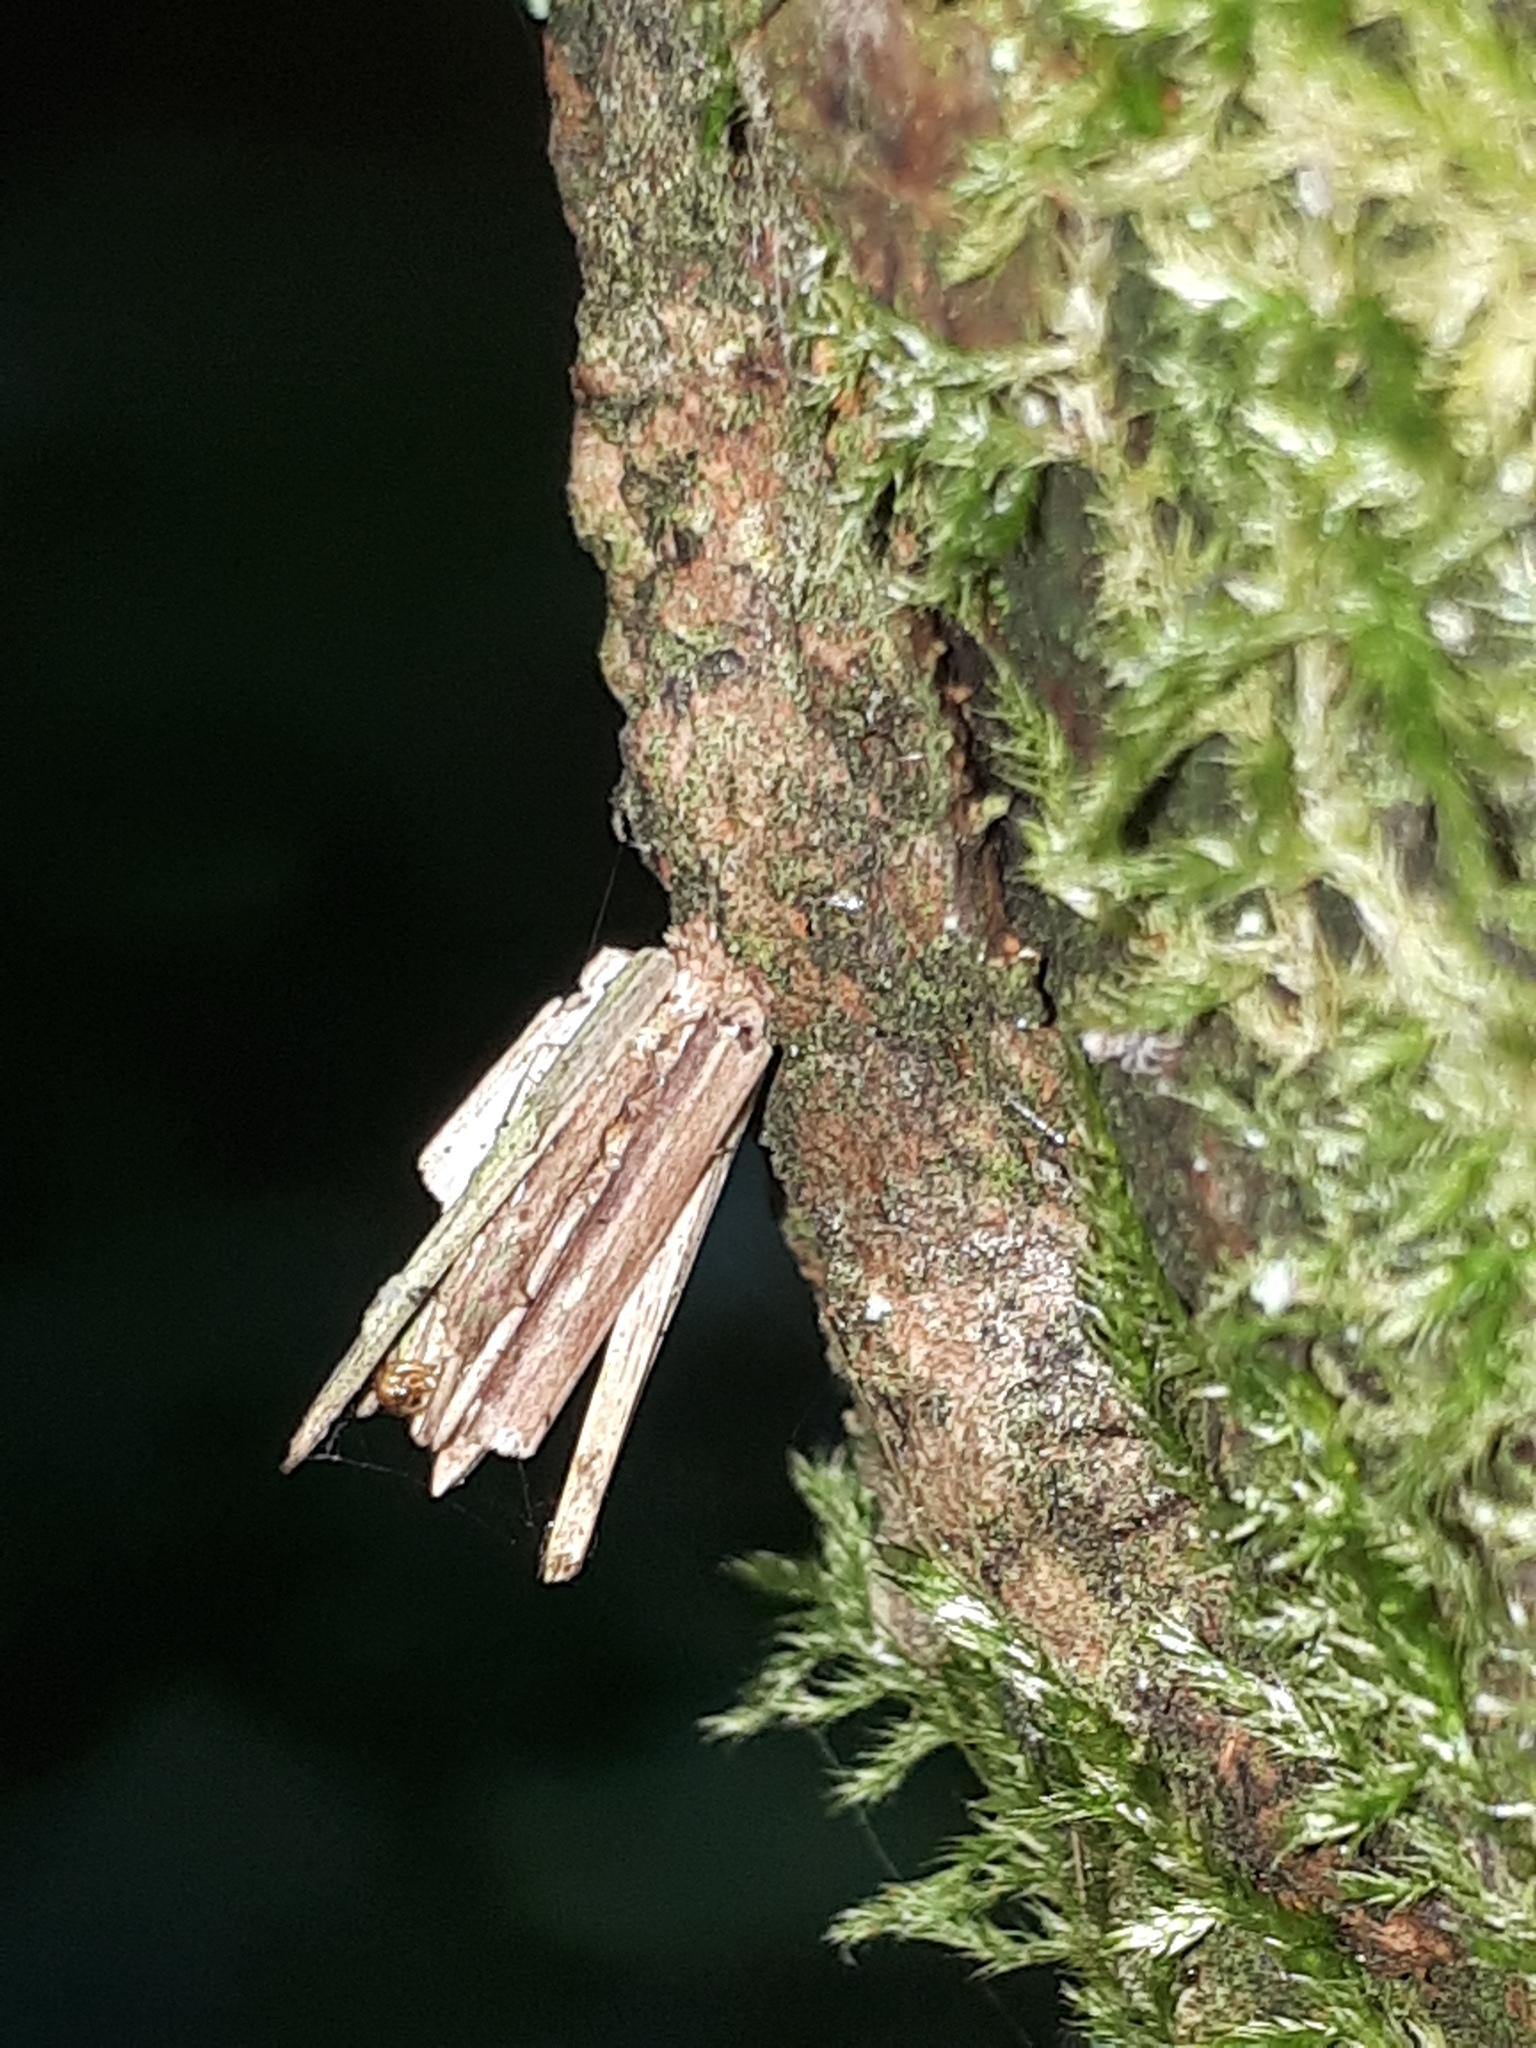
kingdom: Animalia
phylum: Arthropoda
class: Insecta
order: Lepidoptera
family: Psychidae
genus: Psyche
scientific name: Psyche casta
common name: Common sweep
